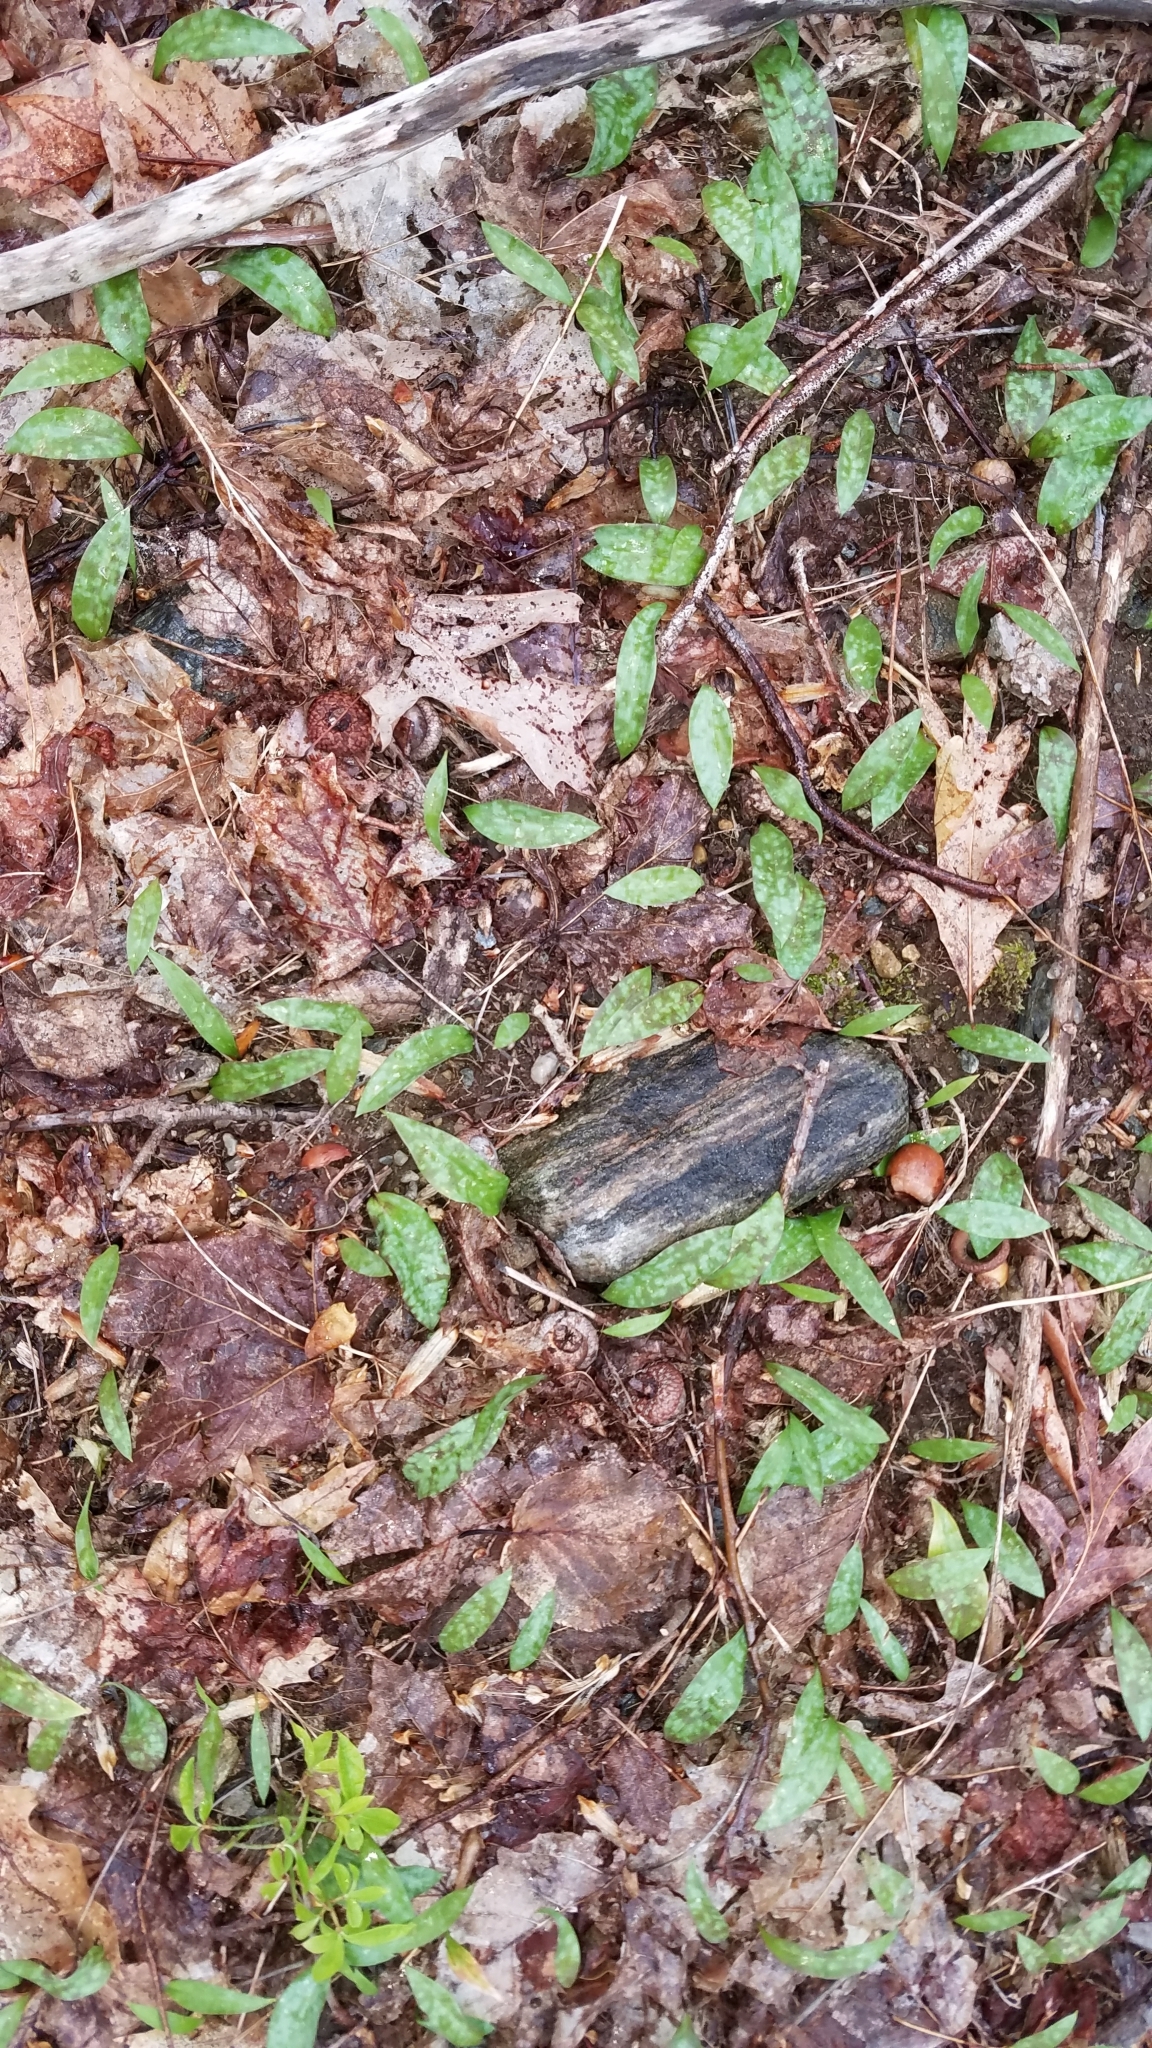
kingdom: Plantae
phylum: Tracheophyta
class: Liliopsida
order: Liliales
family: Liliaceae
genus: Erythronium
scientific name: Erythronium americanum
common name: Yellow adder's-tongue
